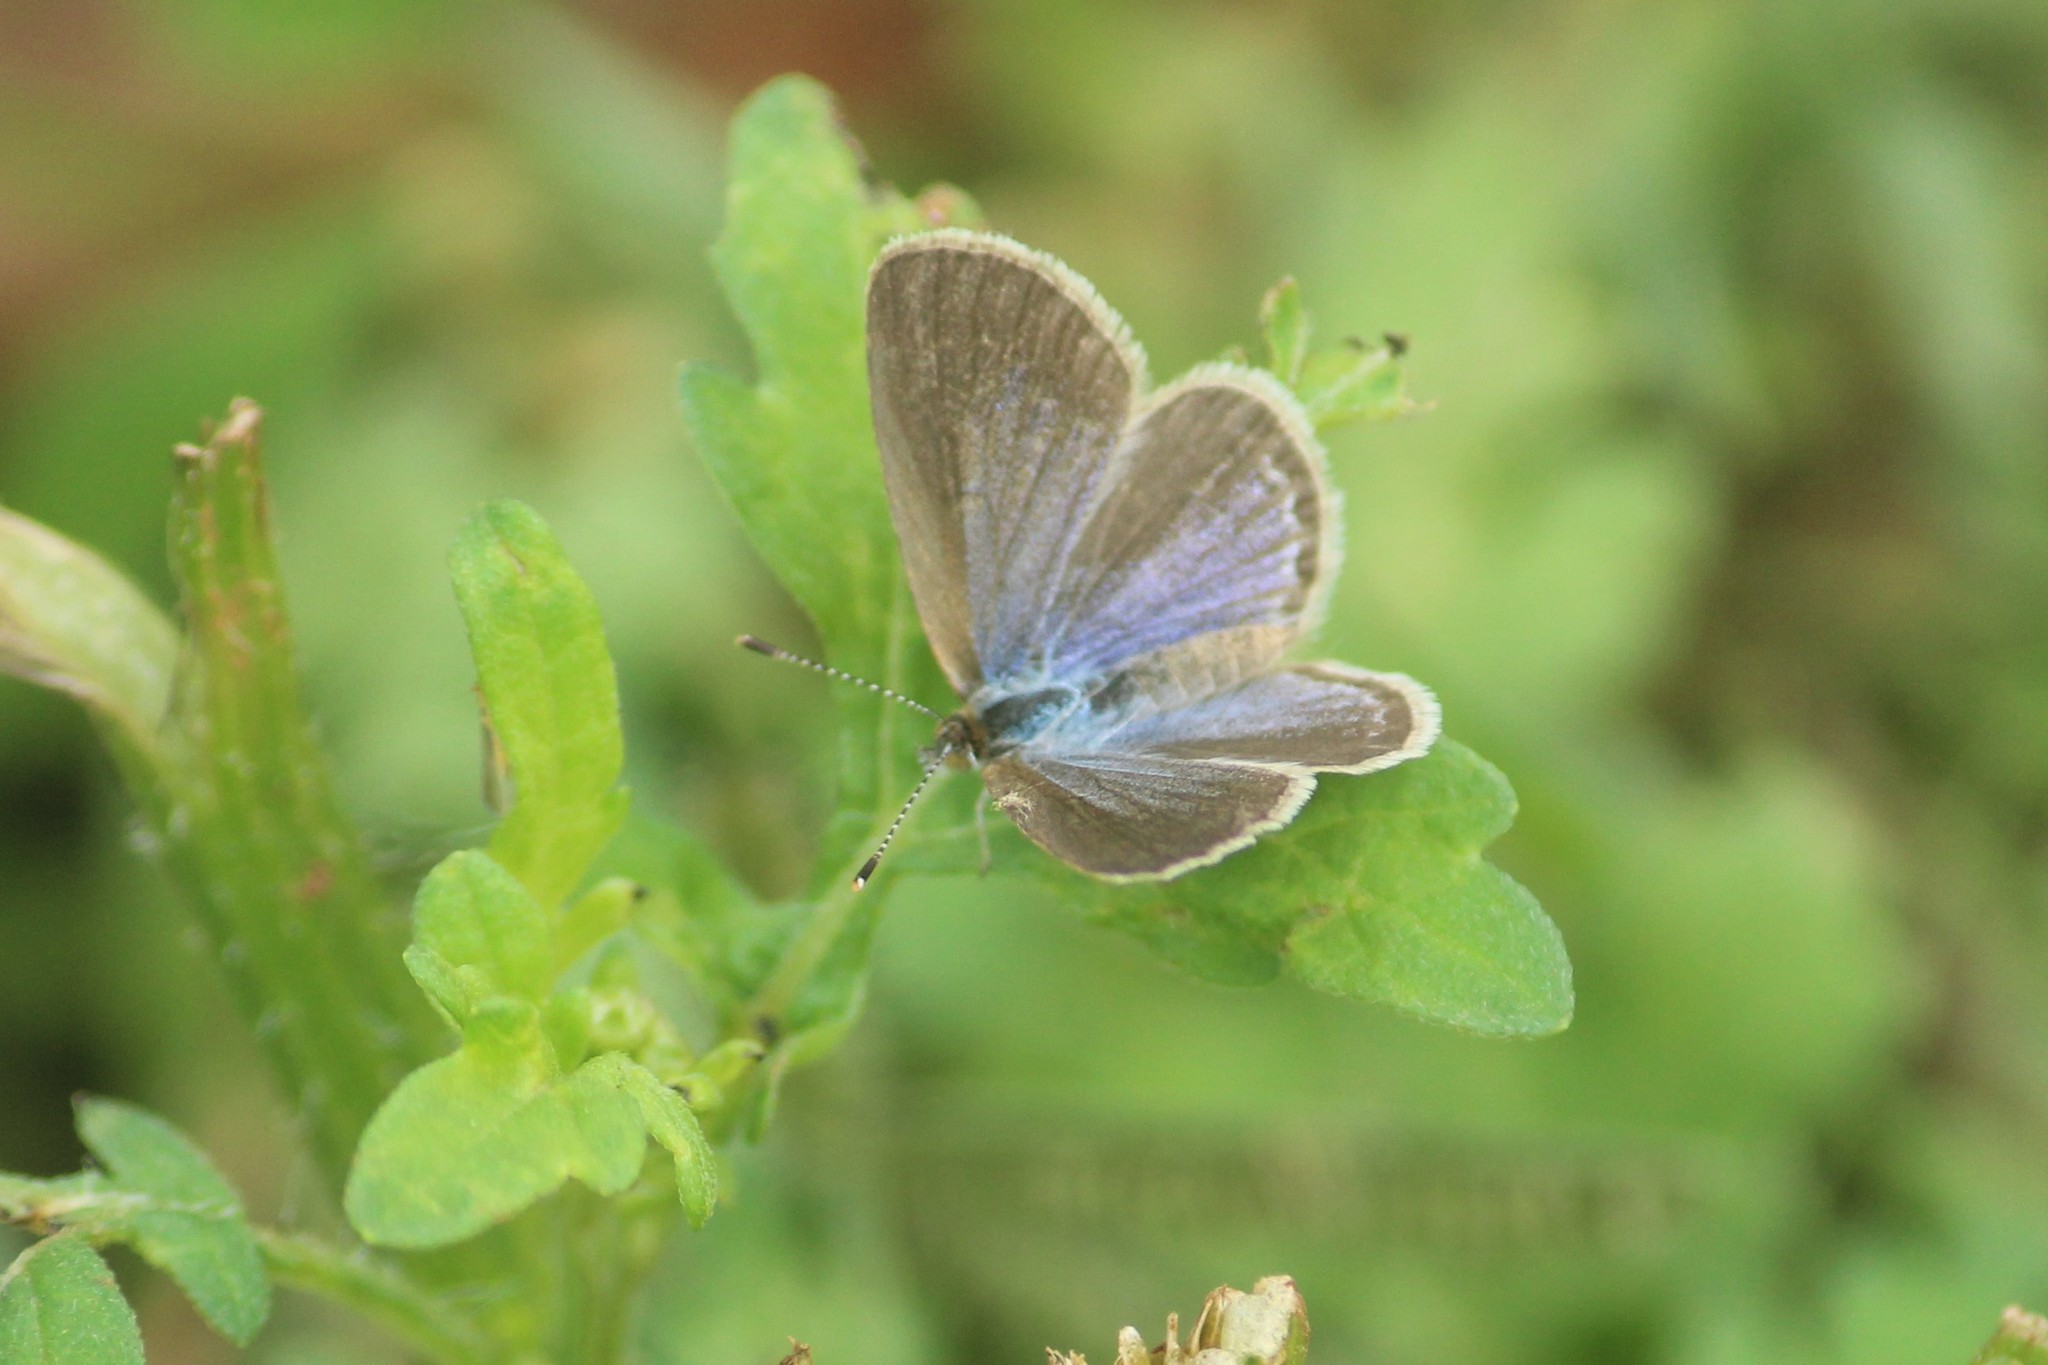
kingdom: Animalia
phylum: Arthropoda
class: Insecta
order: Lepidoptera
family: Lycaenidae
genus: Zizina
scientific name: Zizina otis
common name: Lesser grass blue
